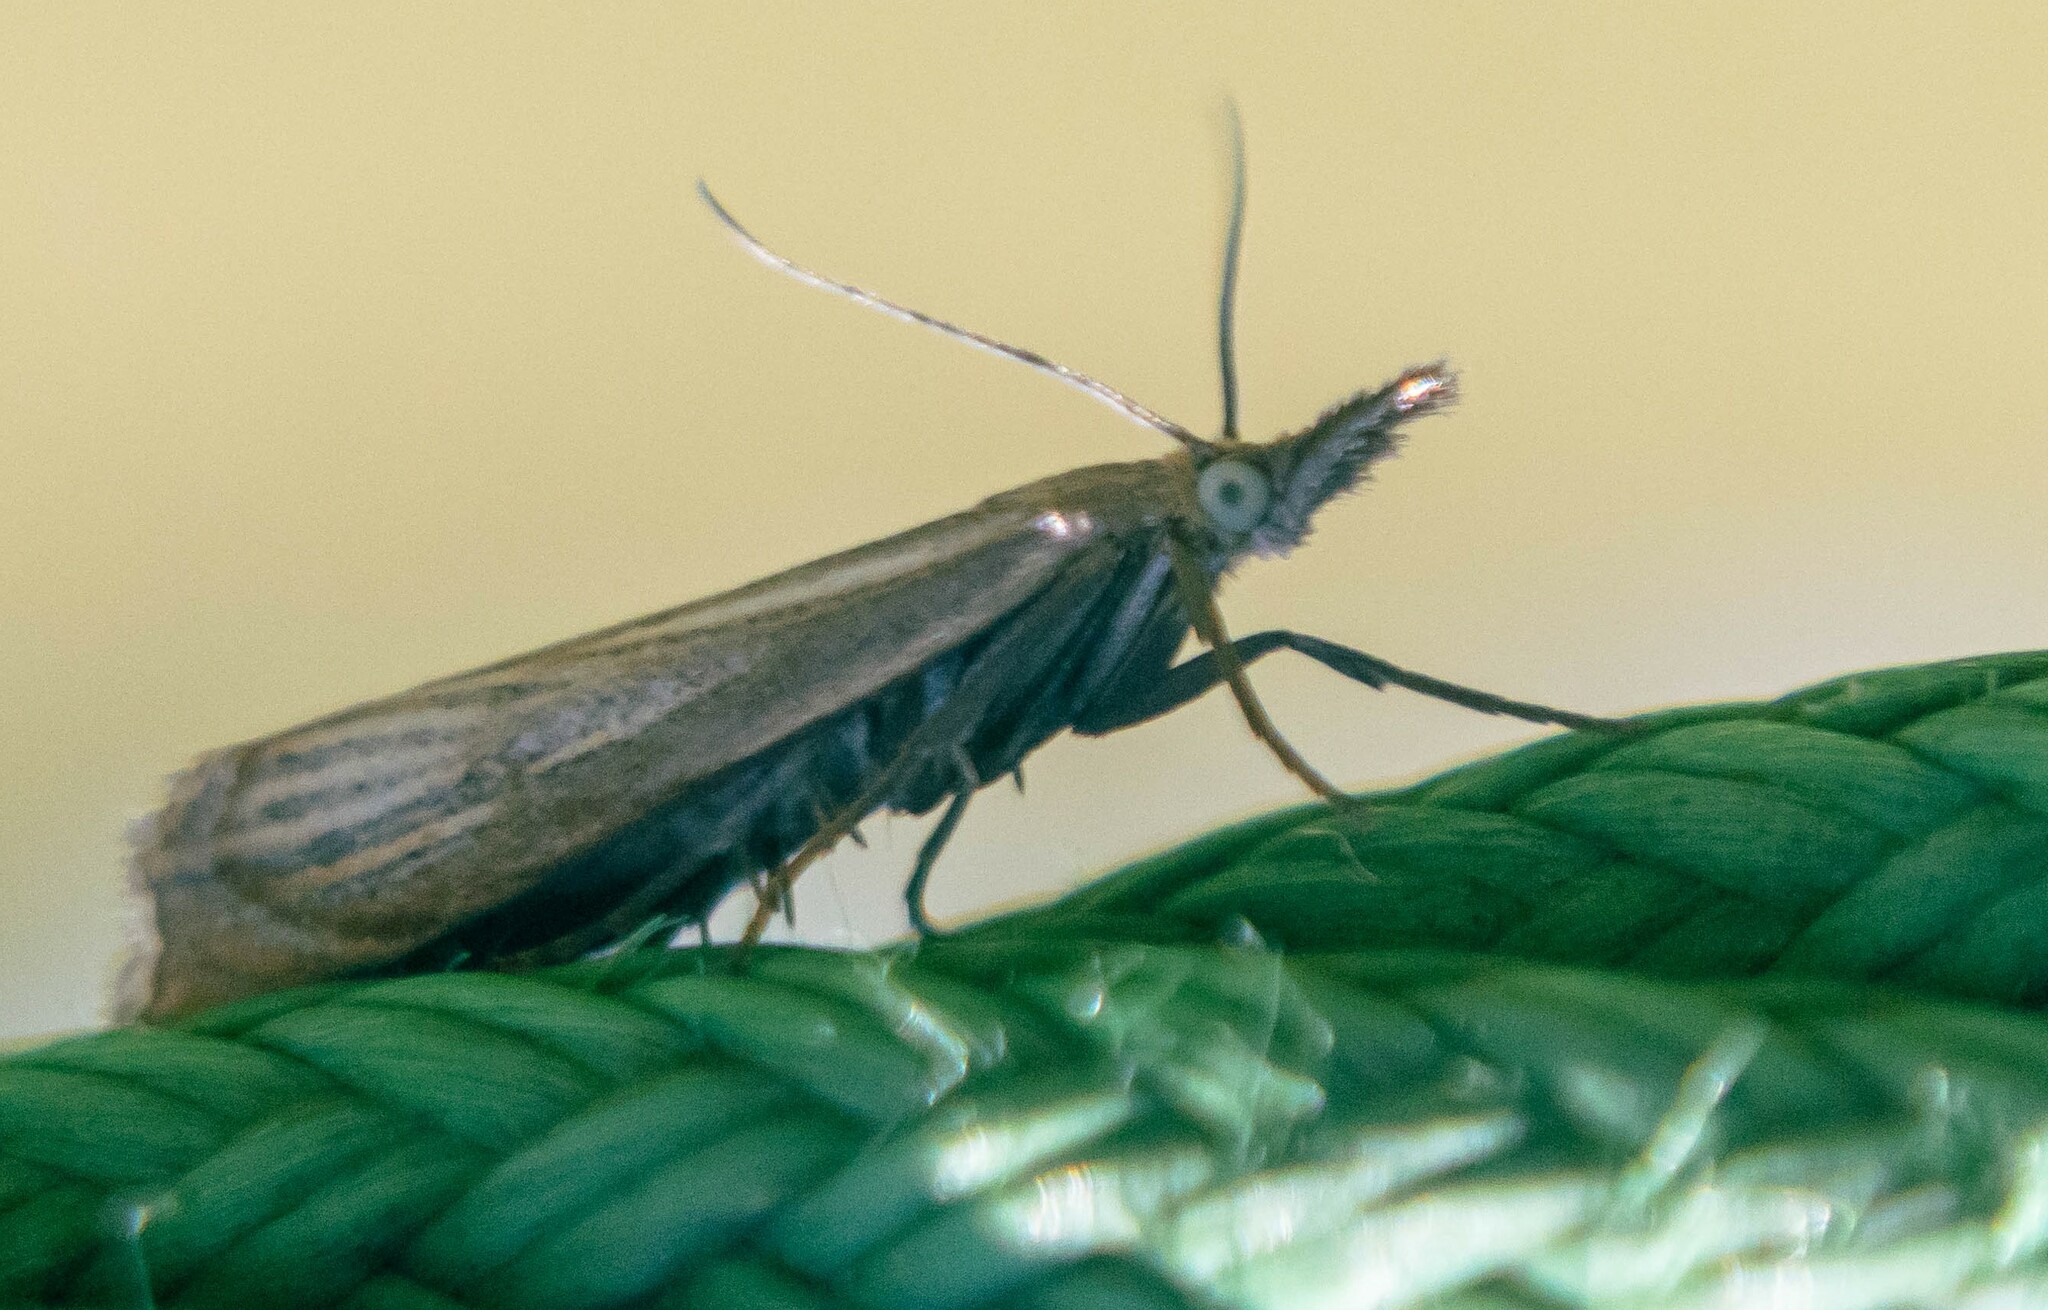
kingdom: Animalia
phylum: Arthropoda
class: Insecta
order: Lepidoptera
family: Crambidae
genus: Crambus
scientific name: Crambus perlellus
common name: Yellow satin veneer
